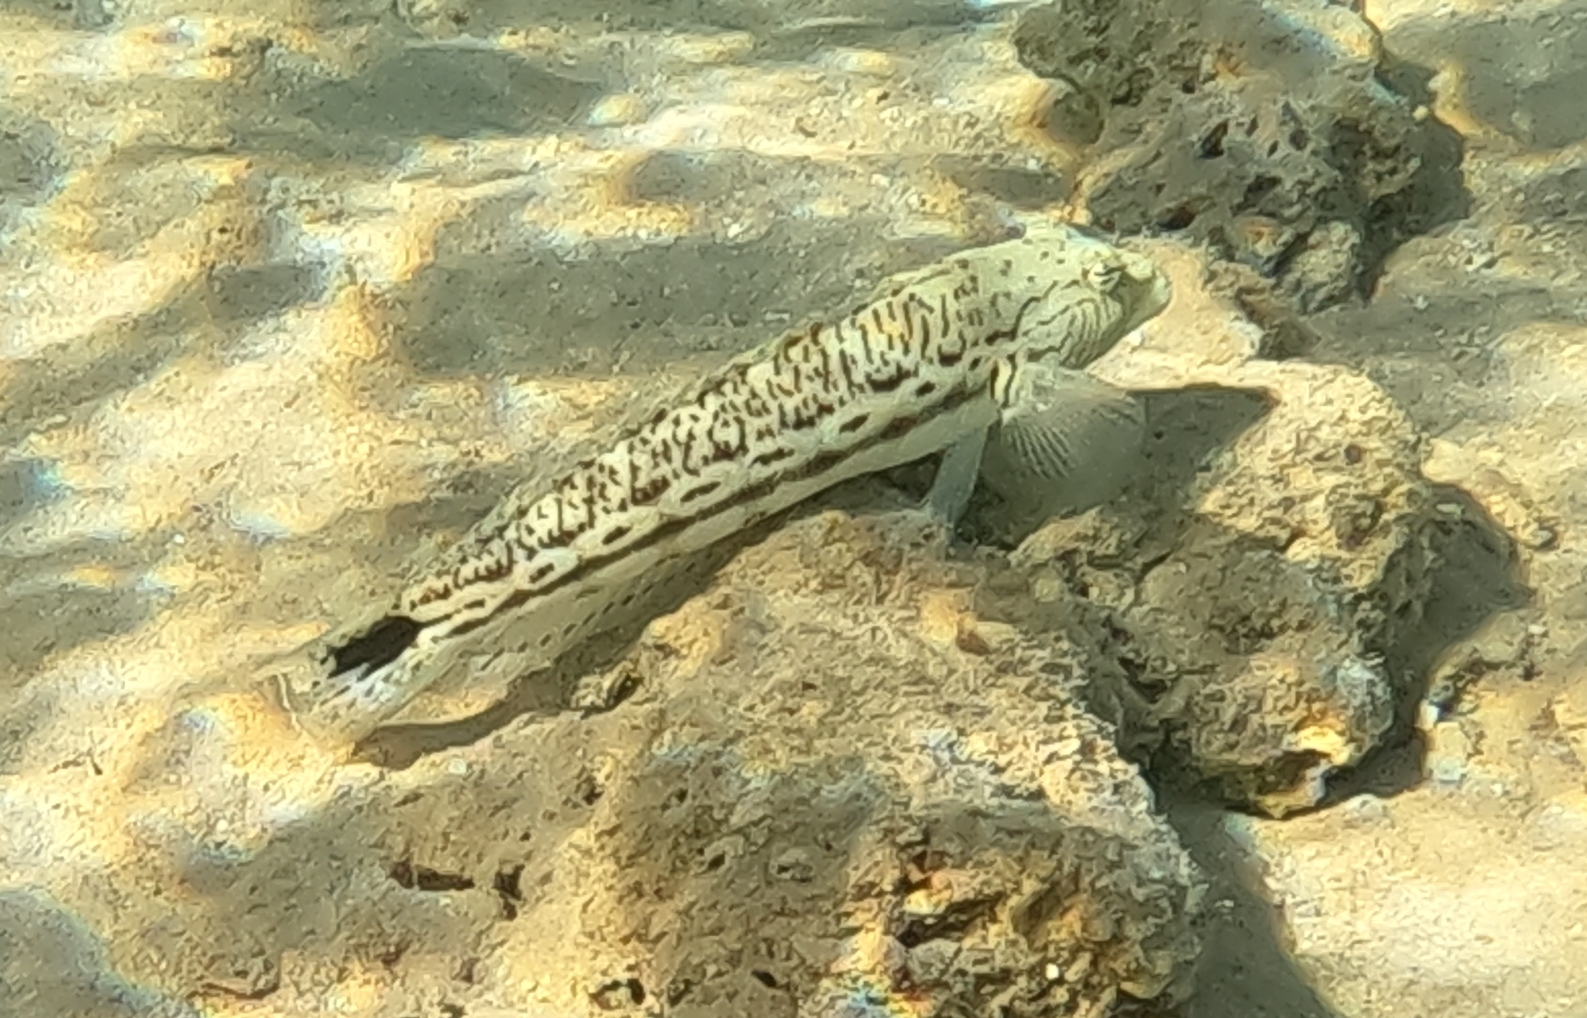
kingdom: Animalia
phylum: Chordata
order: Perciformes
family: Pinguipedidae
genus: Parapercis
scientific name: Parapercis hexophtalma
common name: Speckled sandperch
